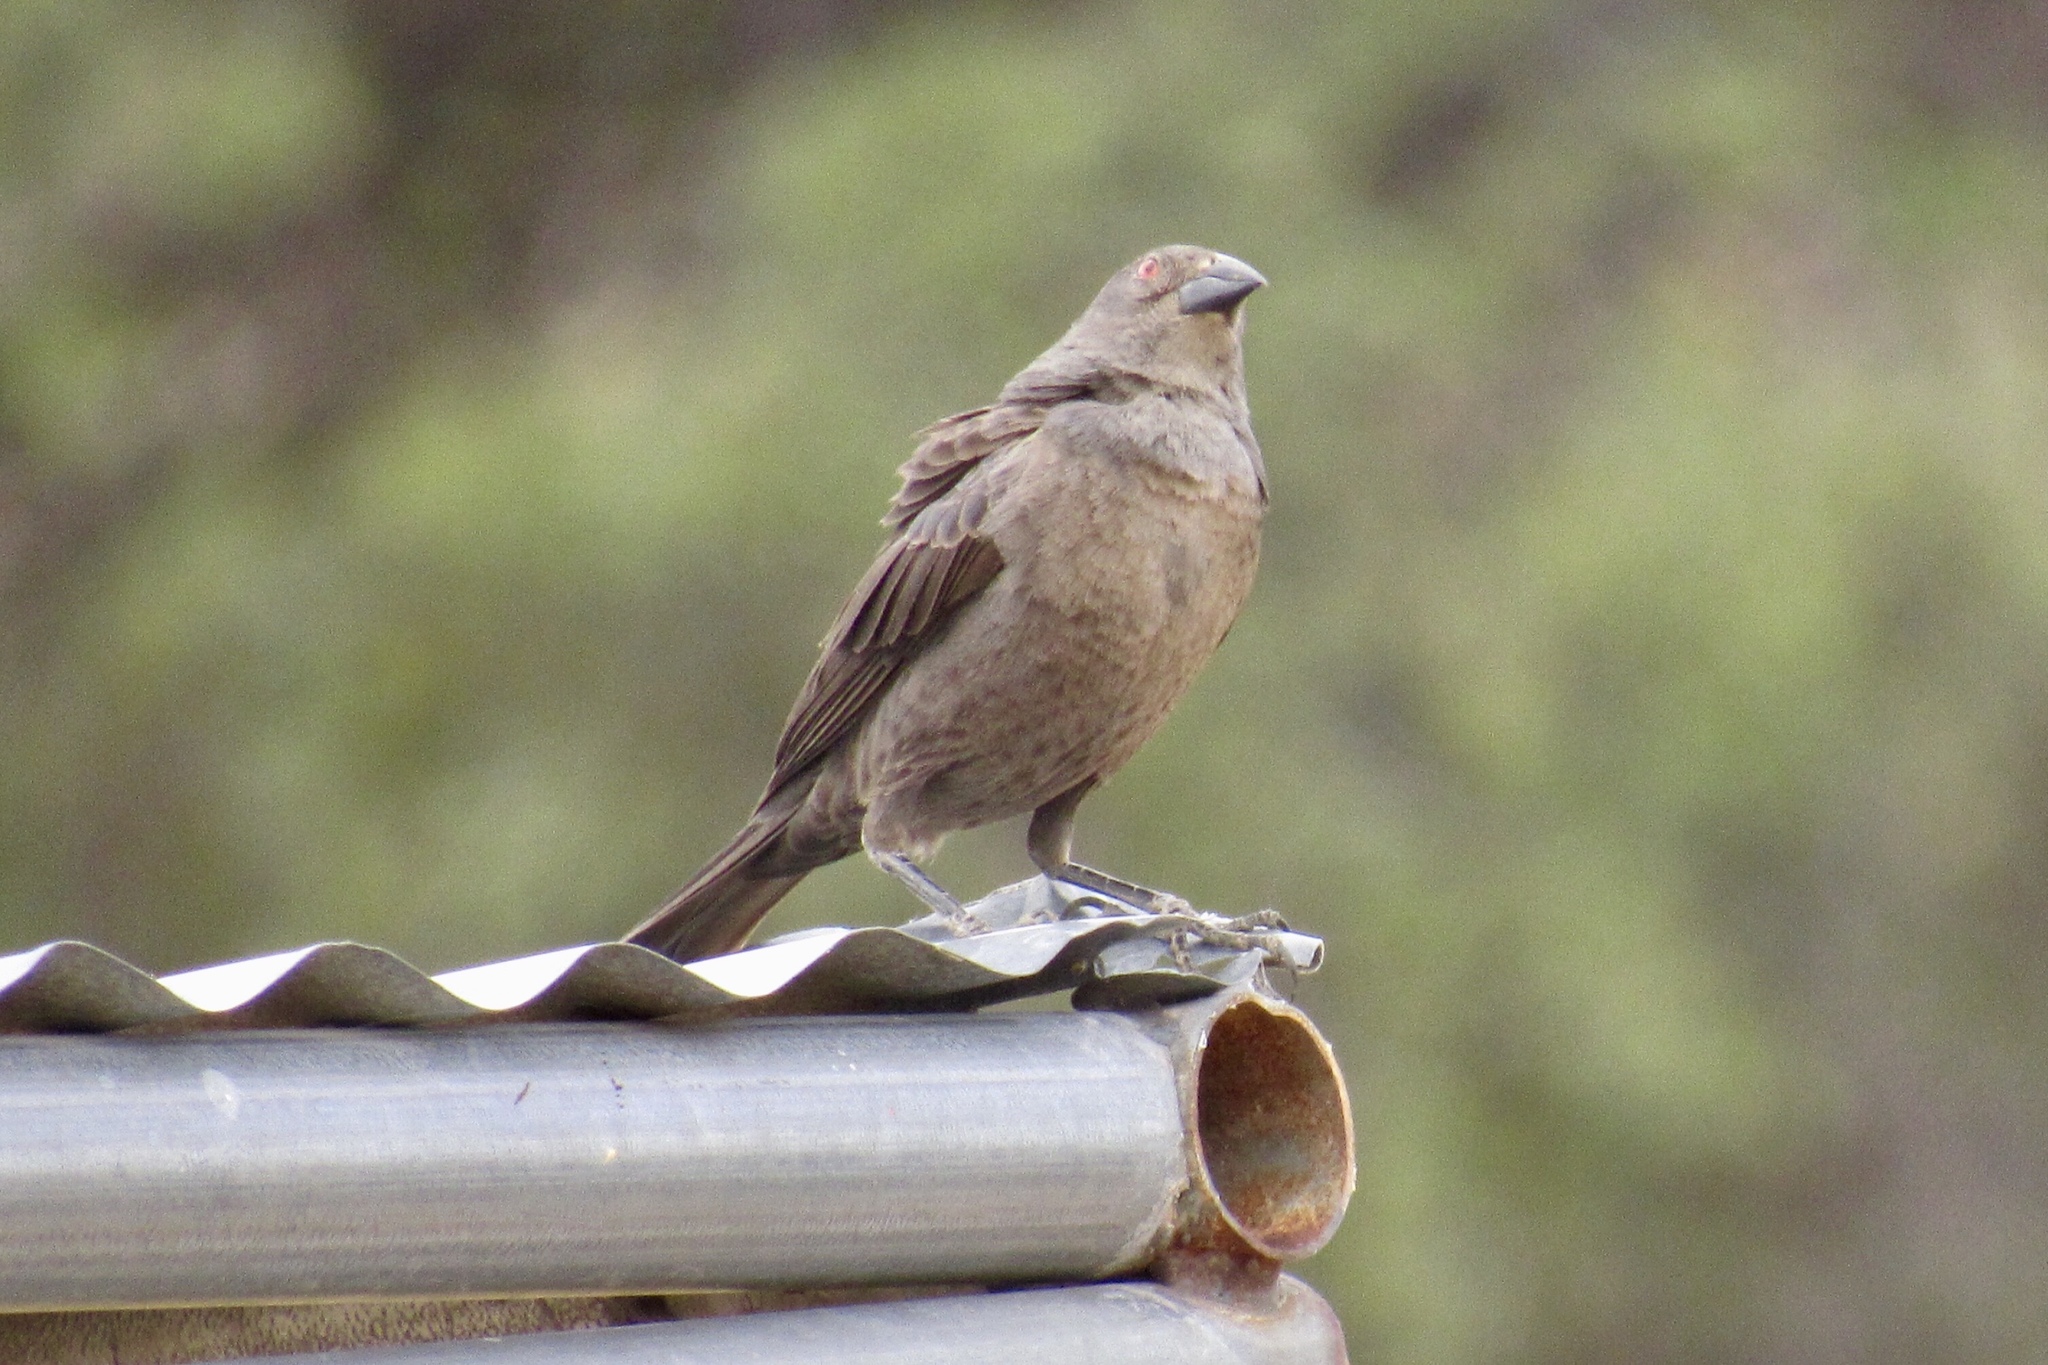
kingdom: Animalia
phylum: Chordata
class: Aves
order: Passeriformes
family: Icteridae
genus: Molothrus
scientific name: Molothrus aeneus
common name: Bronzed cowbird
